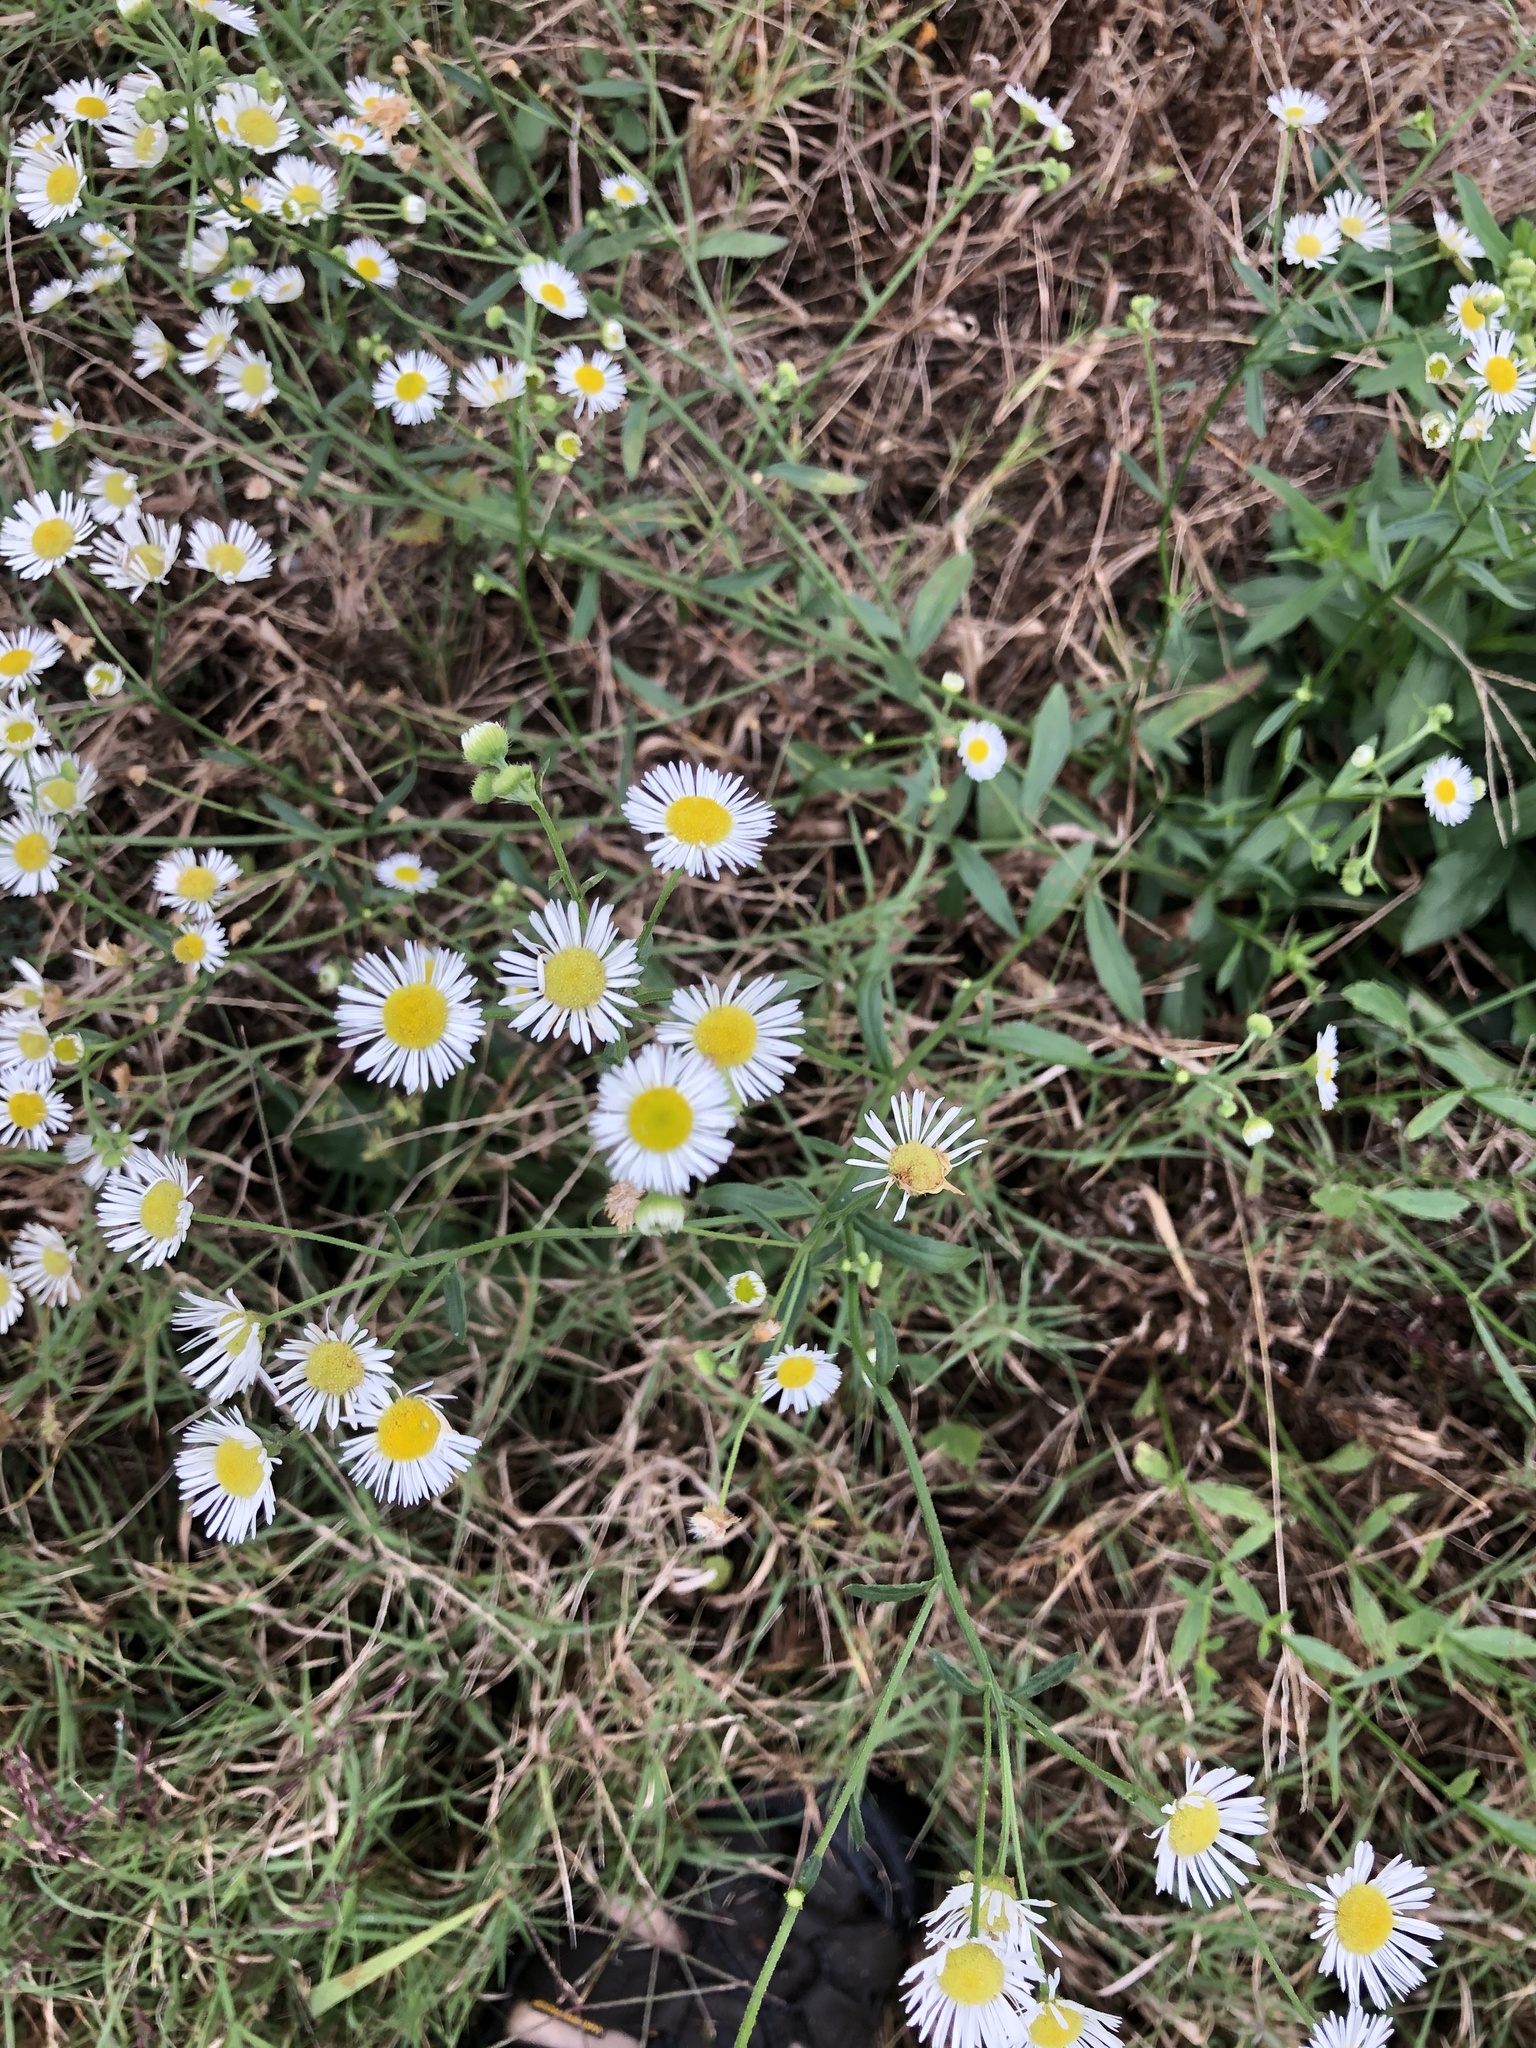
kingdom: Plantae
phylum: Tracheophyta
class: Magnoliopsida
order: Asterales
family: Asteraceae
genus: Erigeron
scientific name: Erigeron annuus
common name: Tall fleabane
